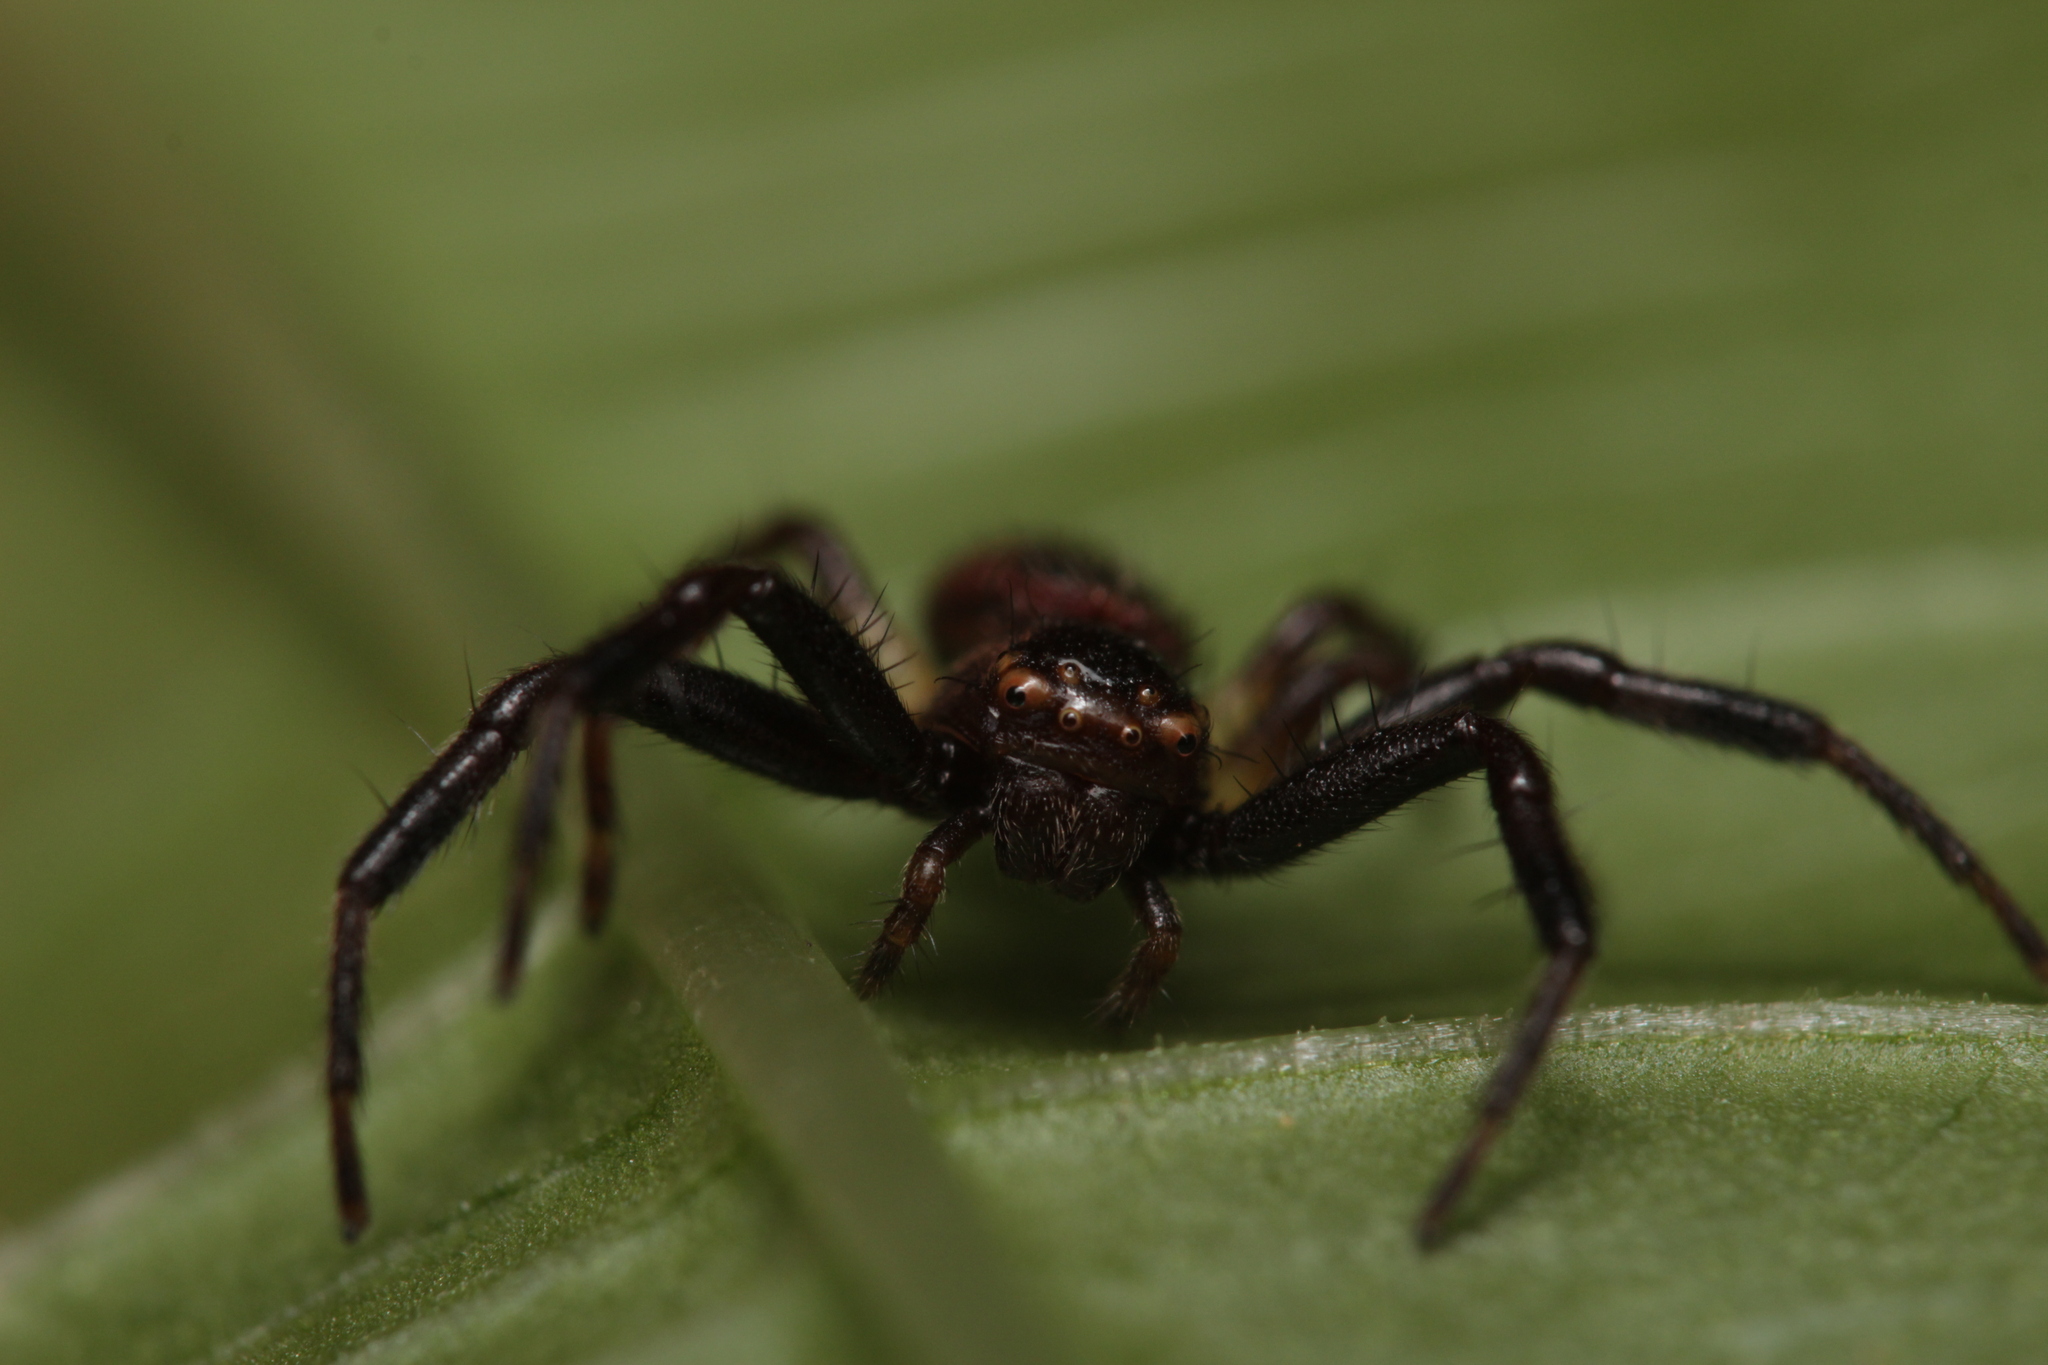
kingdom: Animalia
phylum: Arthropoda
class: Arachnida
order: Araneae
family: Thomisidae
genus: Synema
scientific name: Synema globosum
